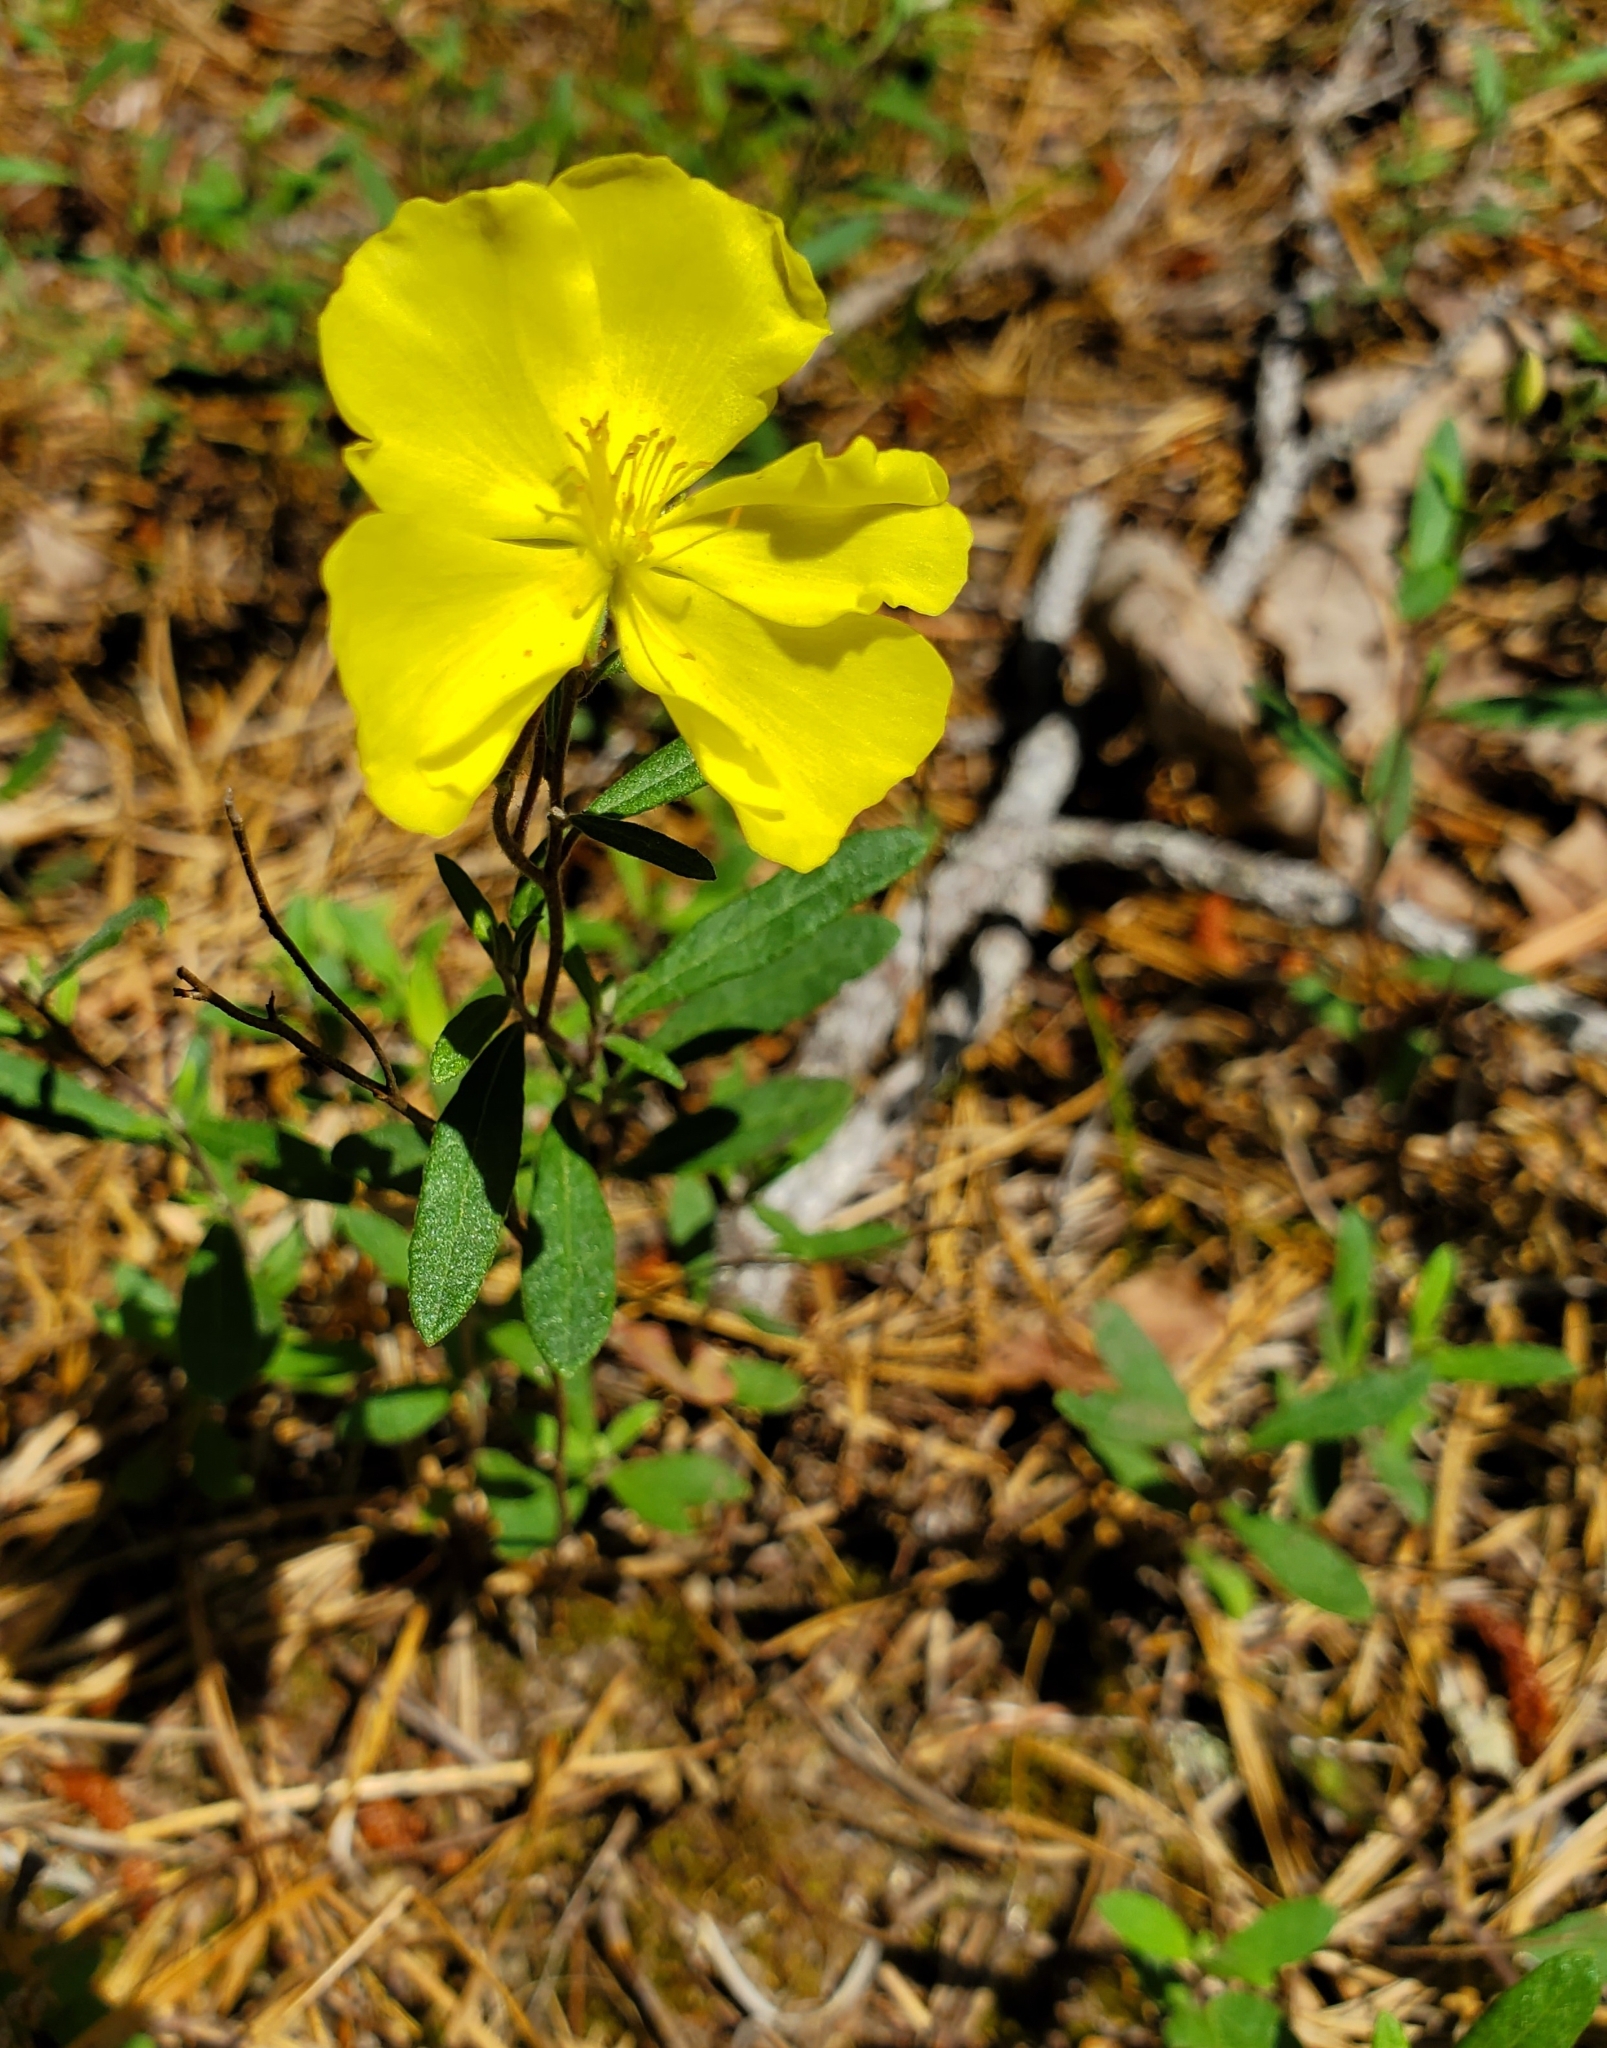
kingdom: Plantae
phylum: Tracheophyta
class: Magnoliopsida
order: Malvales
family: Cistaceae
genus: Crocanthemum
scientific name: Crocanthemum canadense
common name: Canada frostweed
